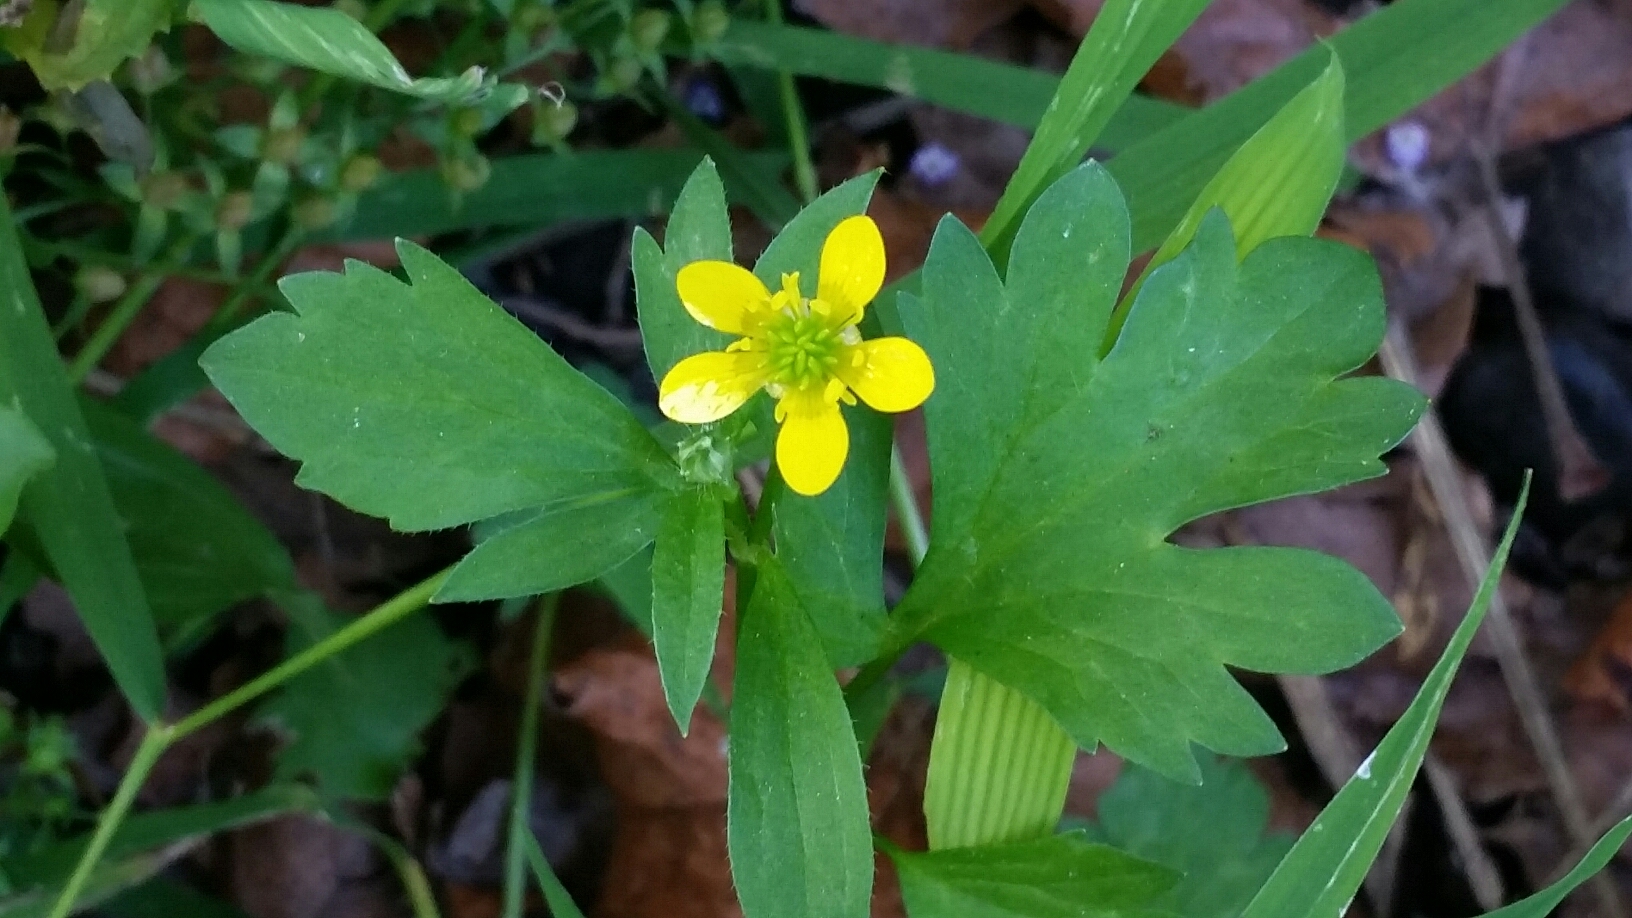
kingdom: Plantae
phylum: Tracheophyta
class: Magnoliopsida
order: Ranunculales
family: Ranunculaceae
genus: Ranunculus
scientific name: Ranunculus muricatus
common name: Rough-fruited buttercup
